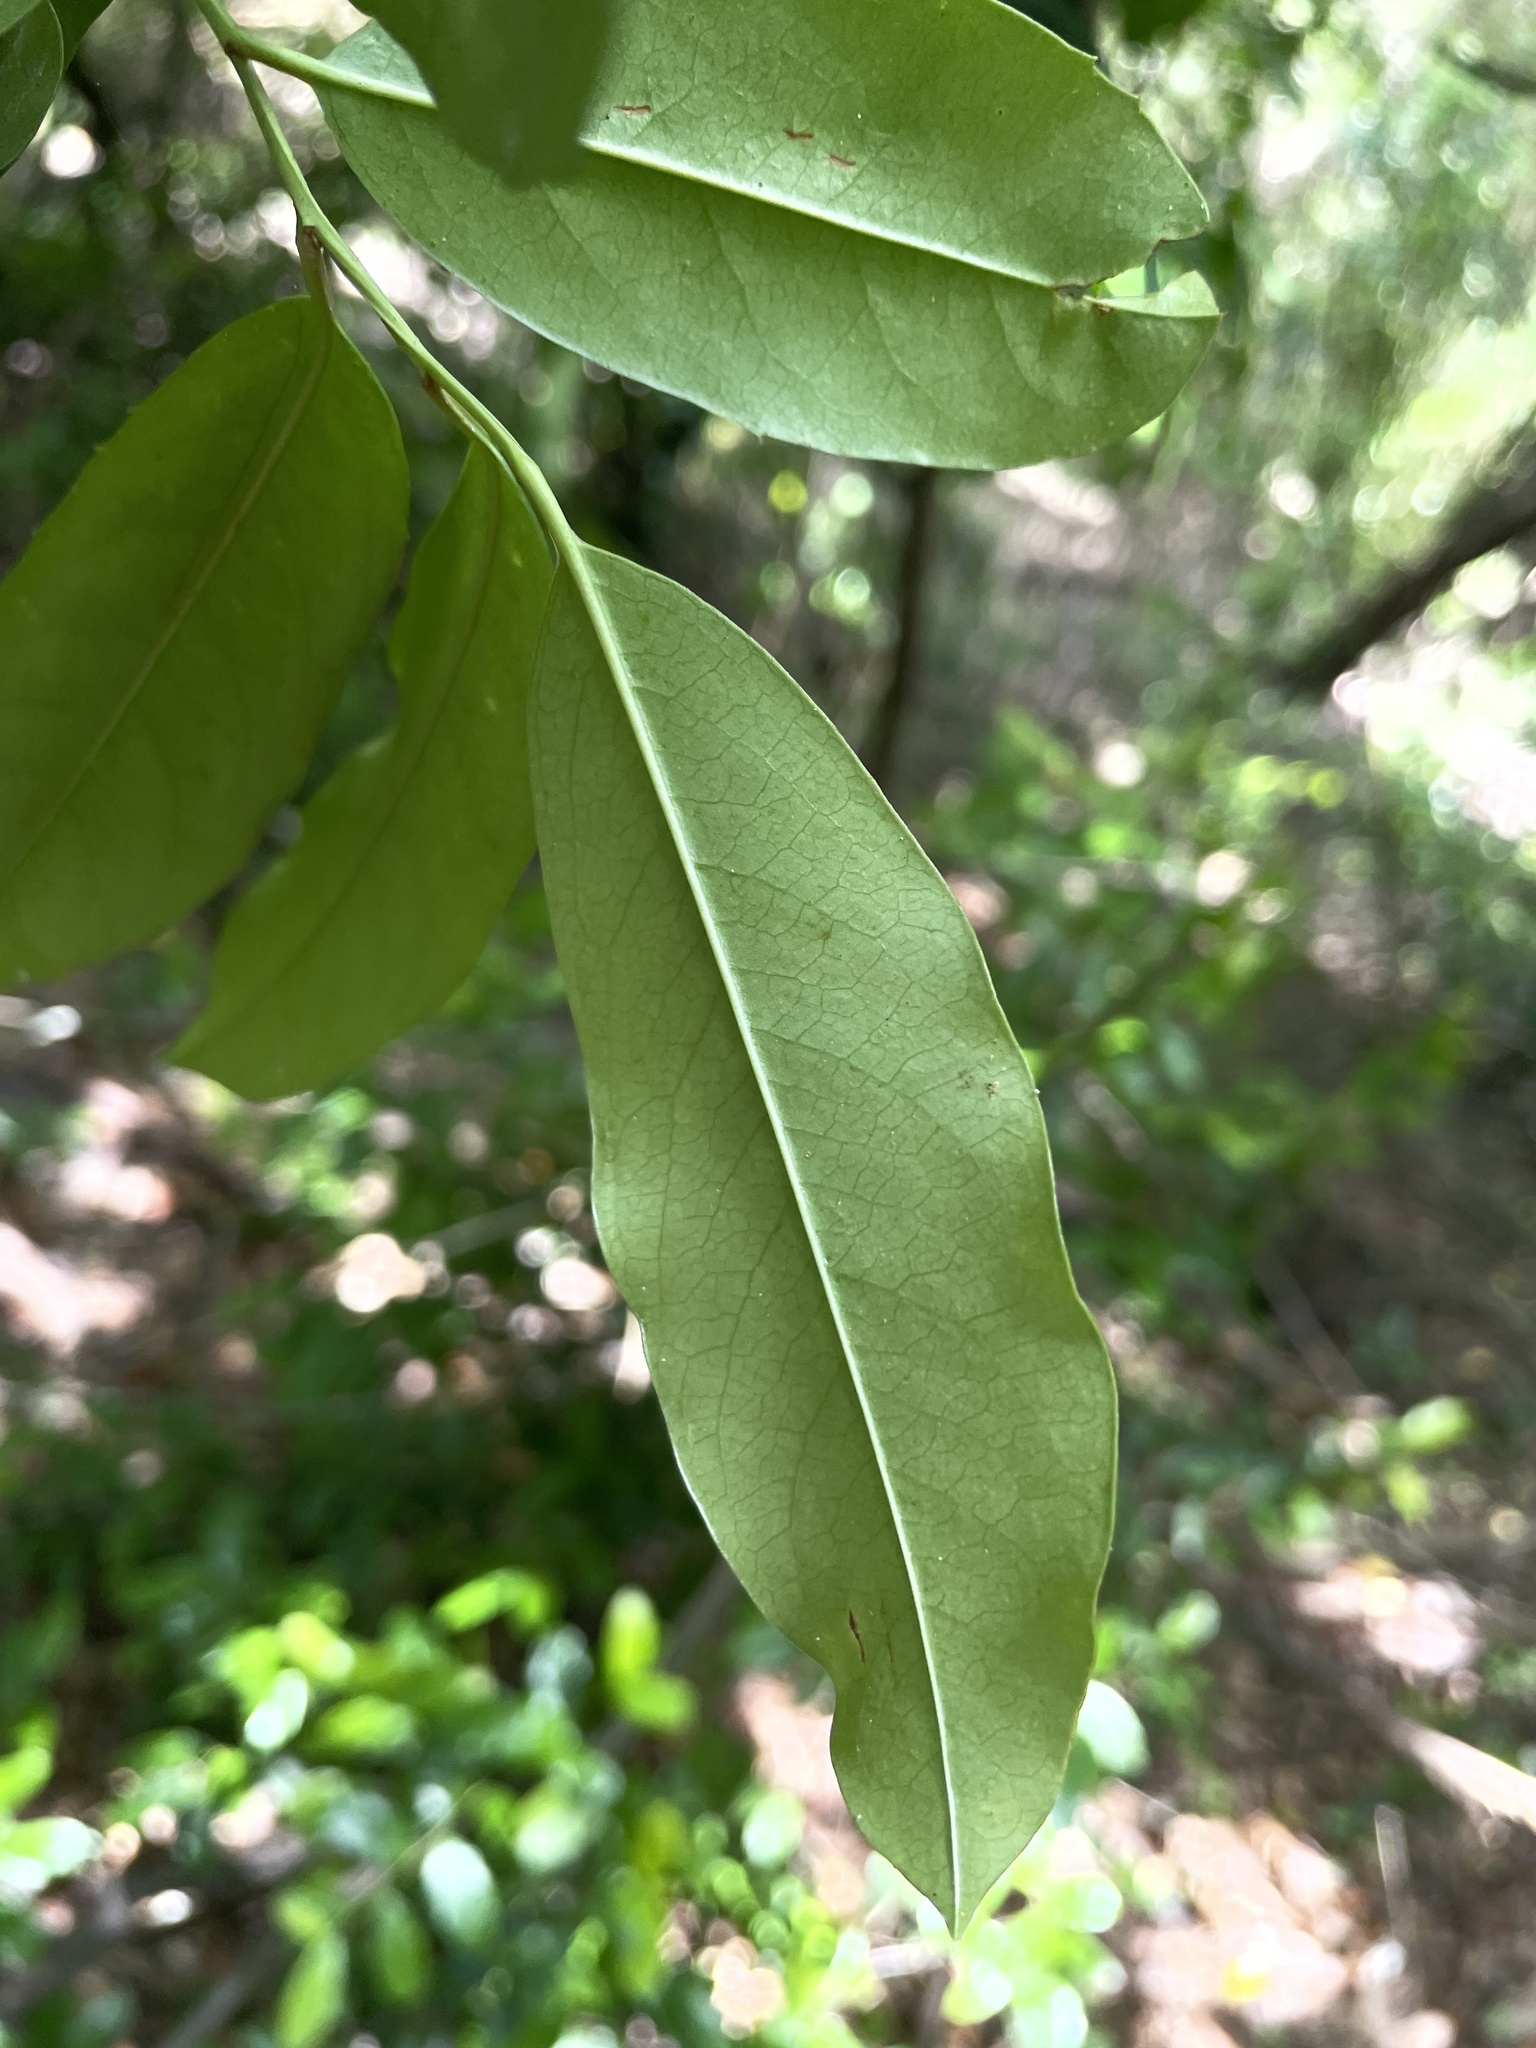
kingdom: Plantae
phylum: Tracheophyta
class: Magnoliopsida
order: Rosales
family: Rosaceae
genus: Prunus
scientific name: Prunus caroliniana
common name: Carolina laurel cherry
